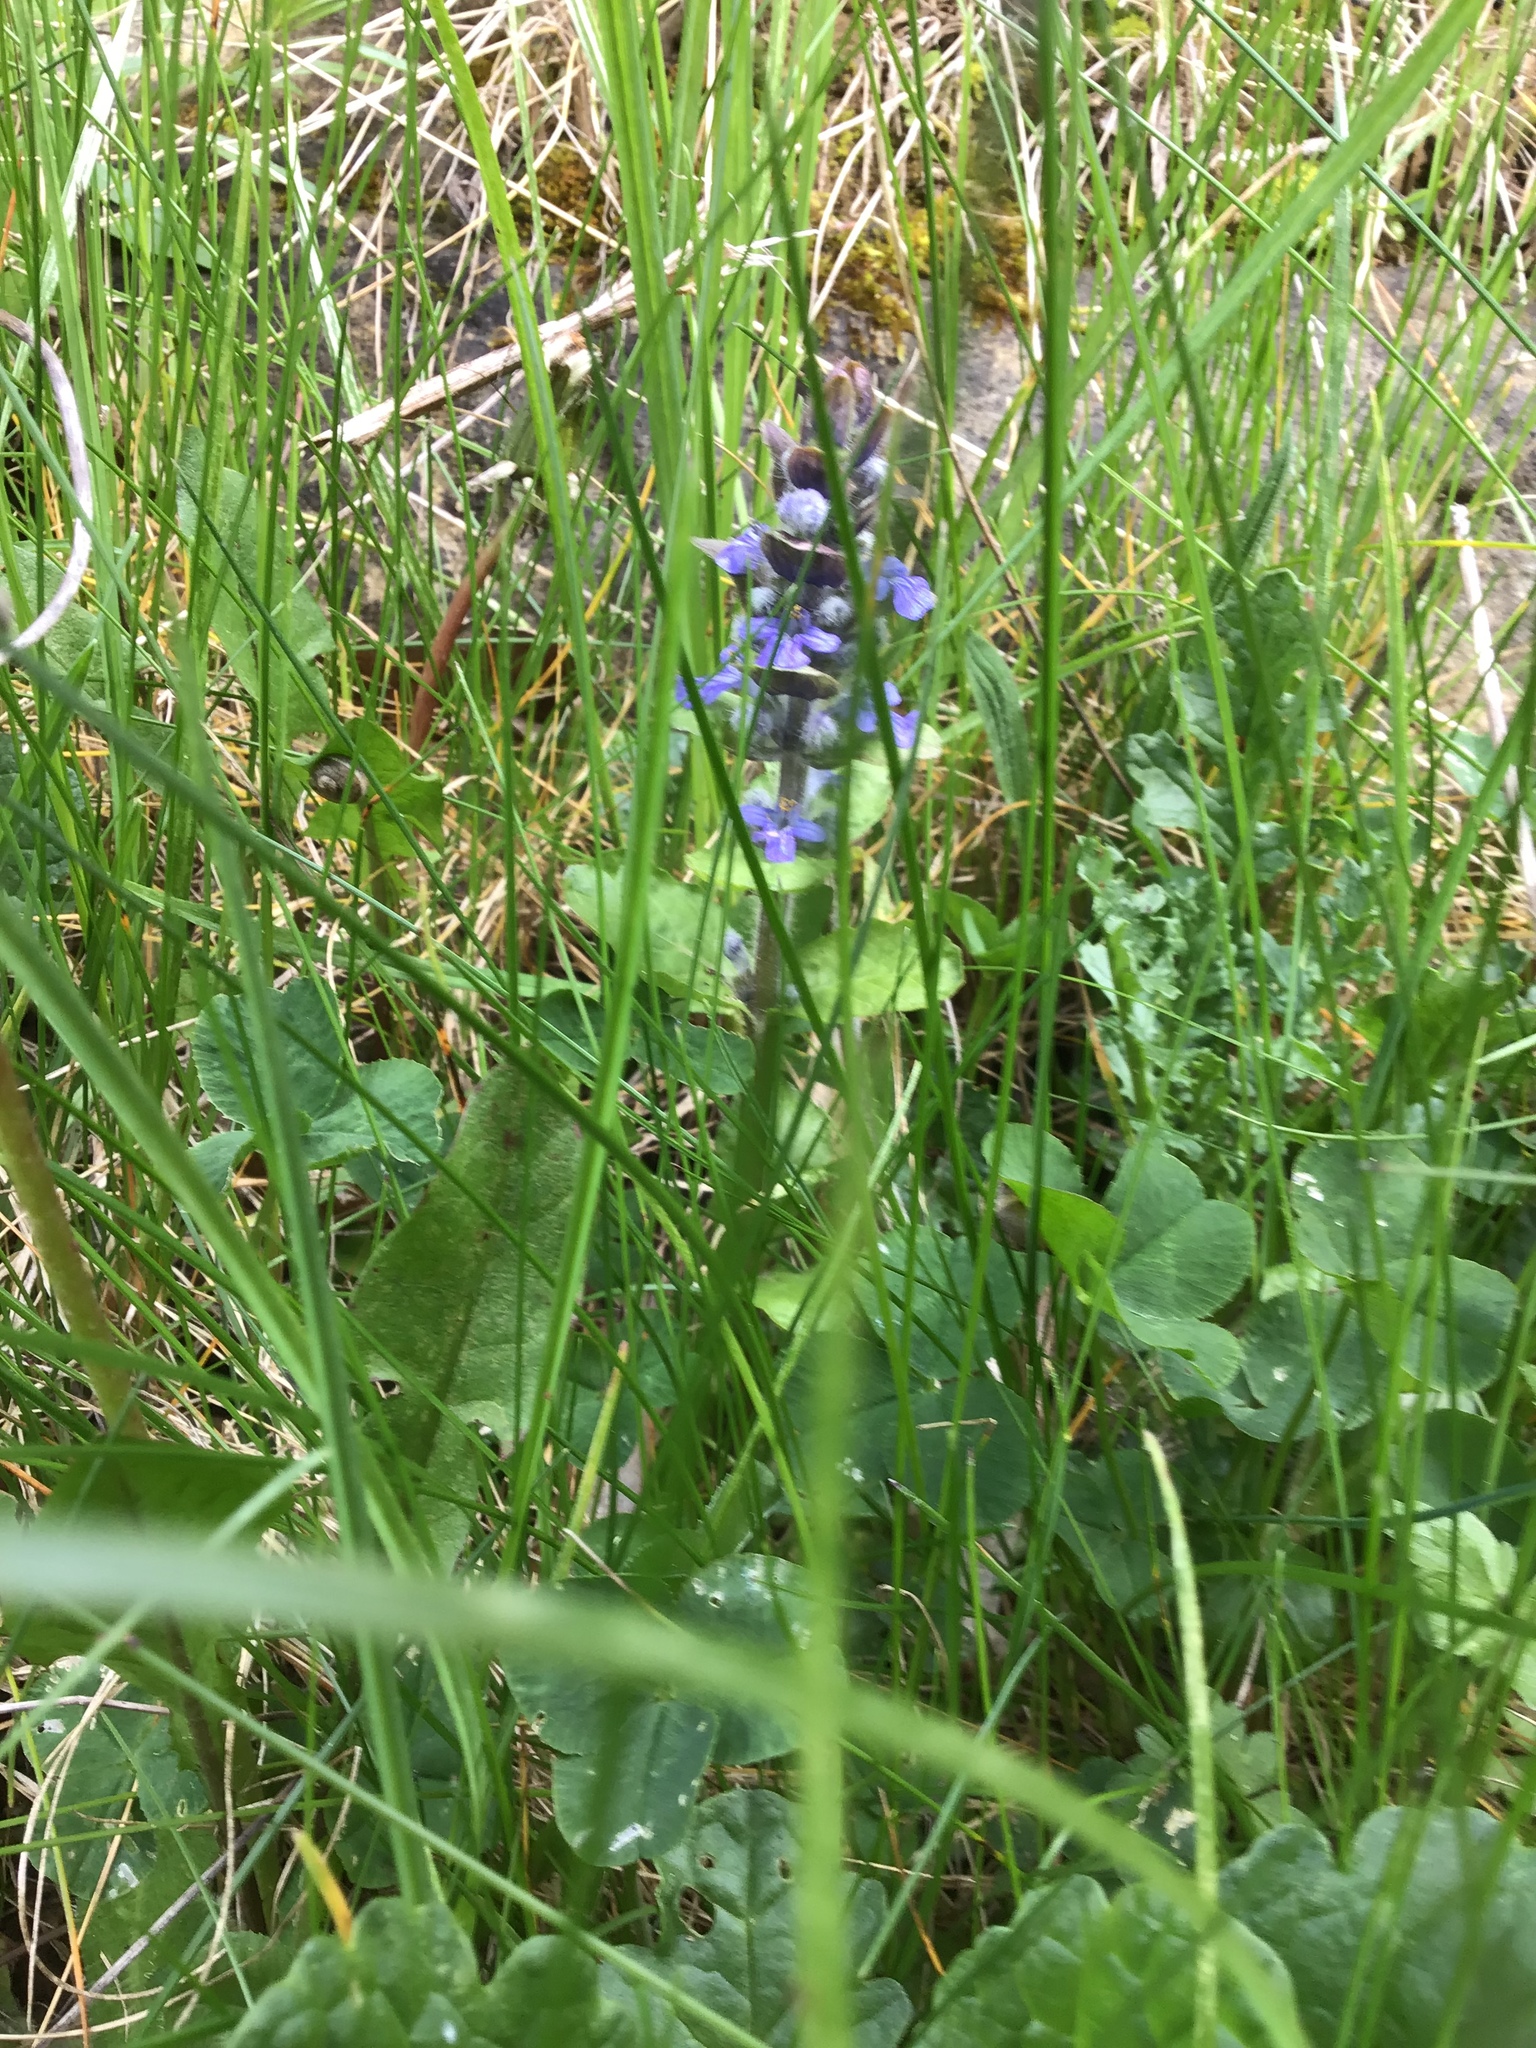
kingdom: Plantae
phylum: Tracheophyta
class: Magnoliopsida
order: Lamiales
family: Lamiaceae
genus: Ajuga
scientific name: Ajuga reptans
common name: Bugle
